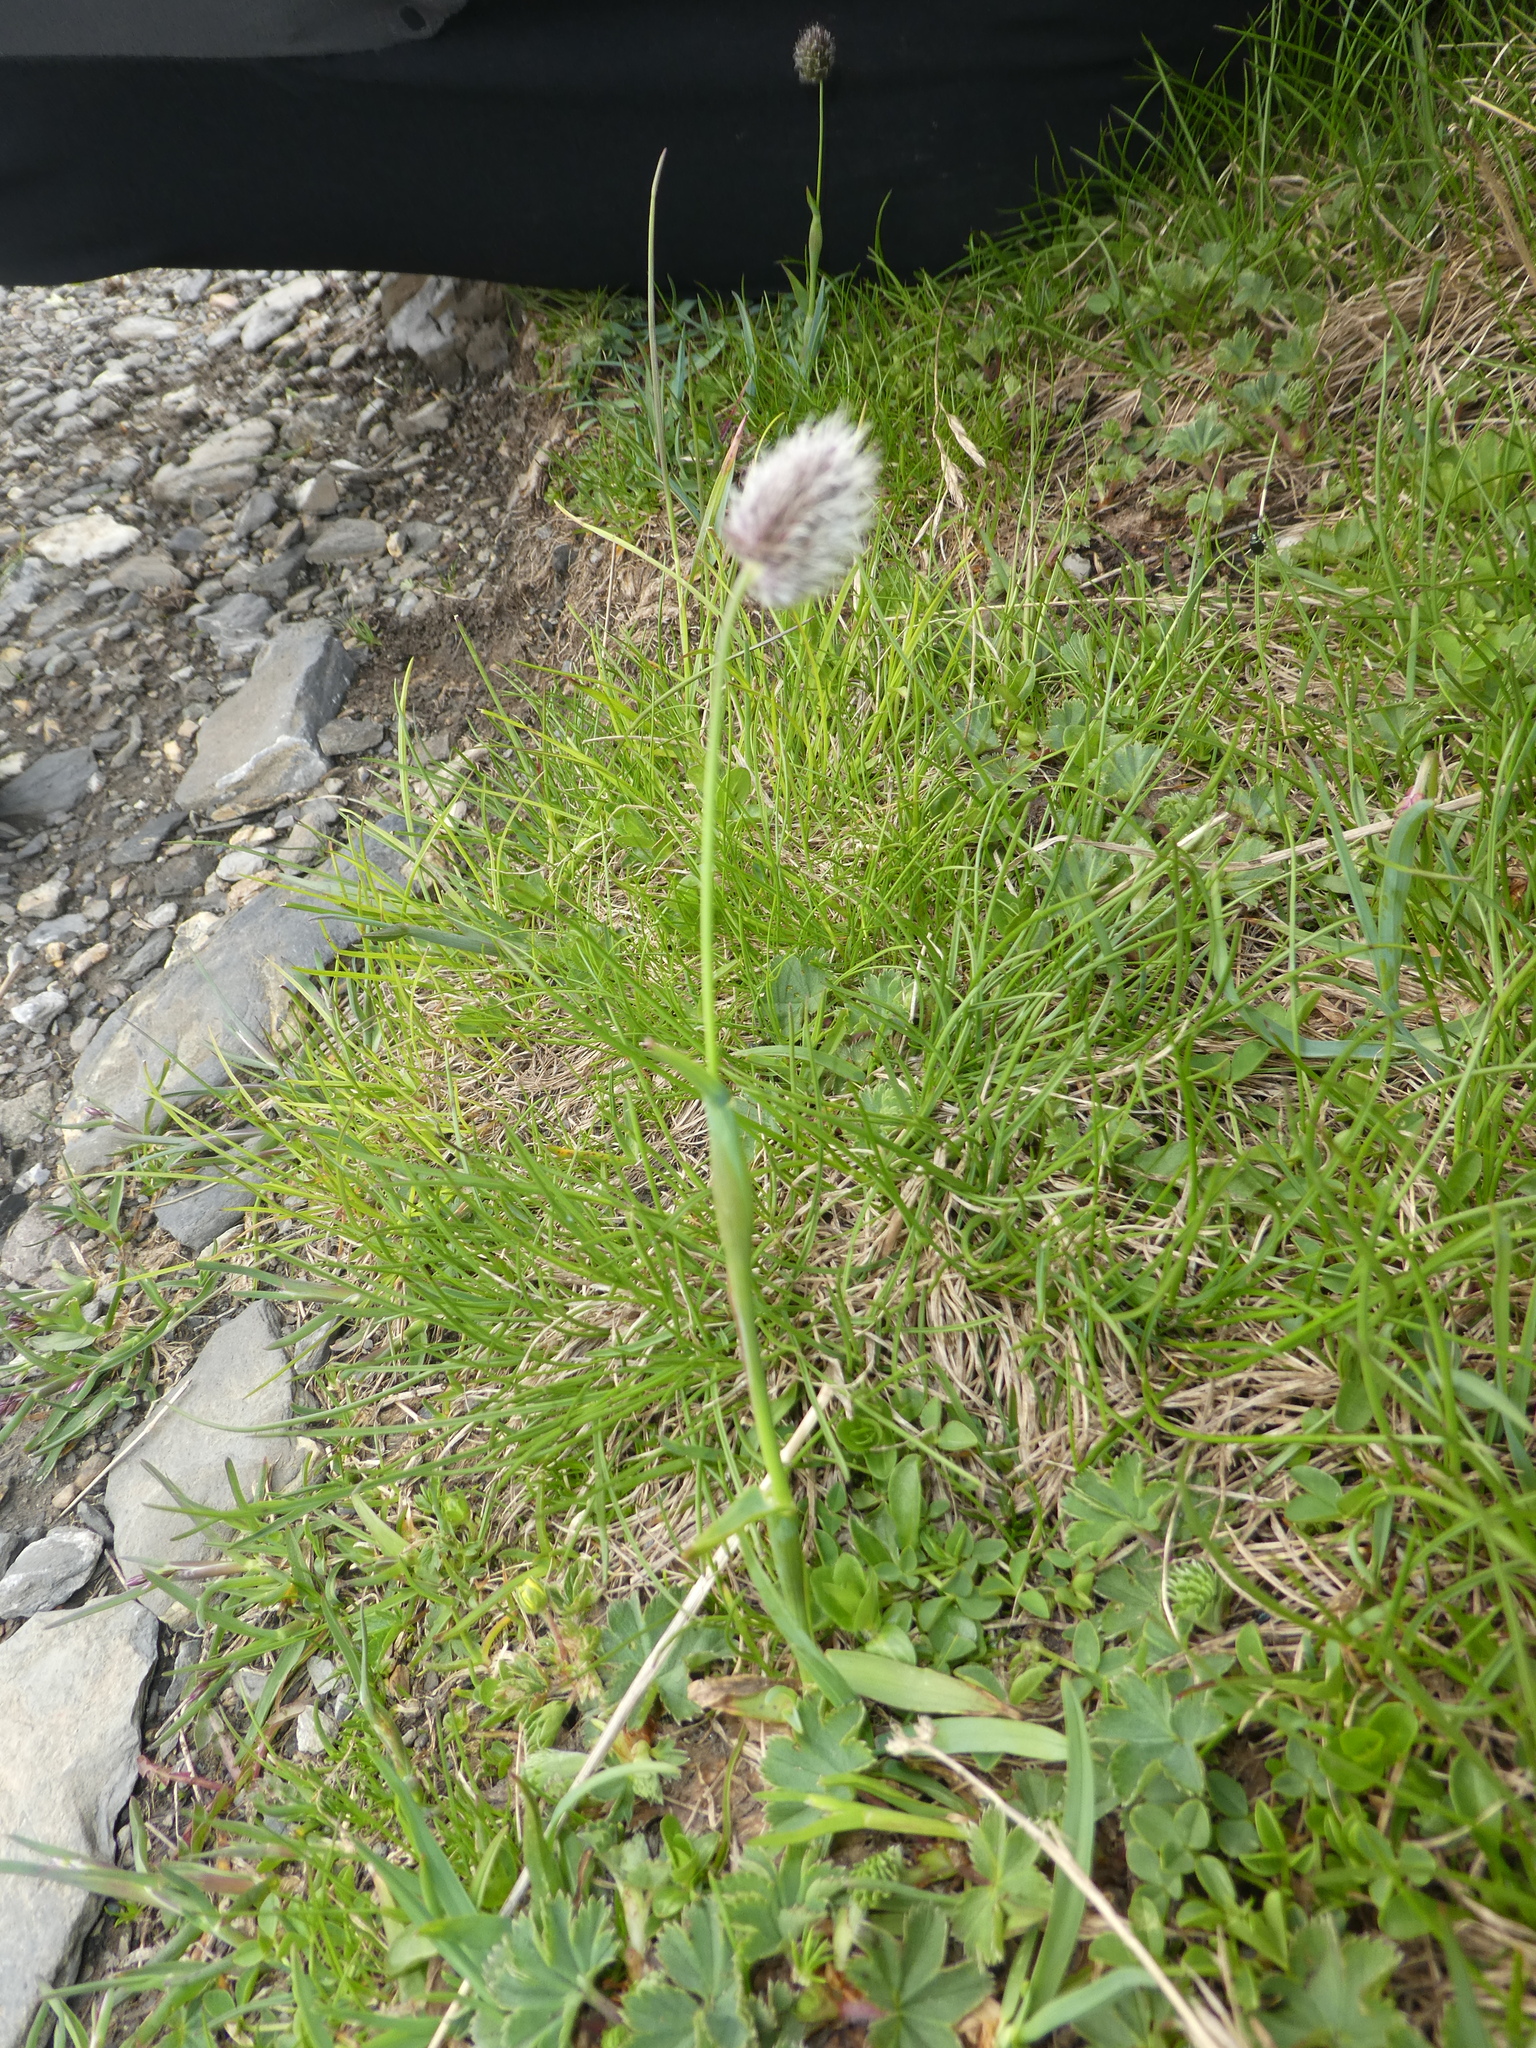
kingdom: Plantae
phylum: Tracheophyta
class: Liliopsida
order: Poales
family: Poaceae
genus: Alopecurus
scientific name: Alopecurus gerardii
